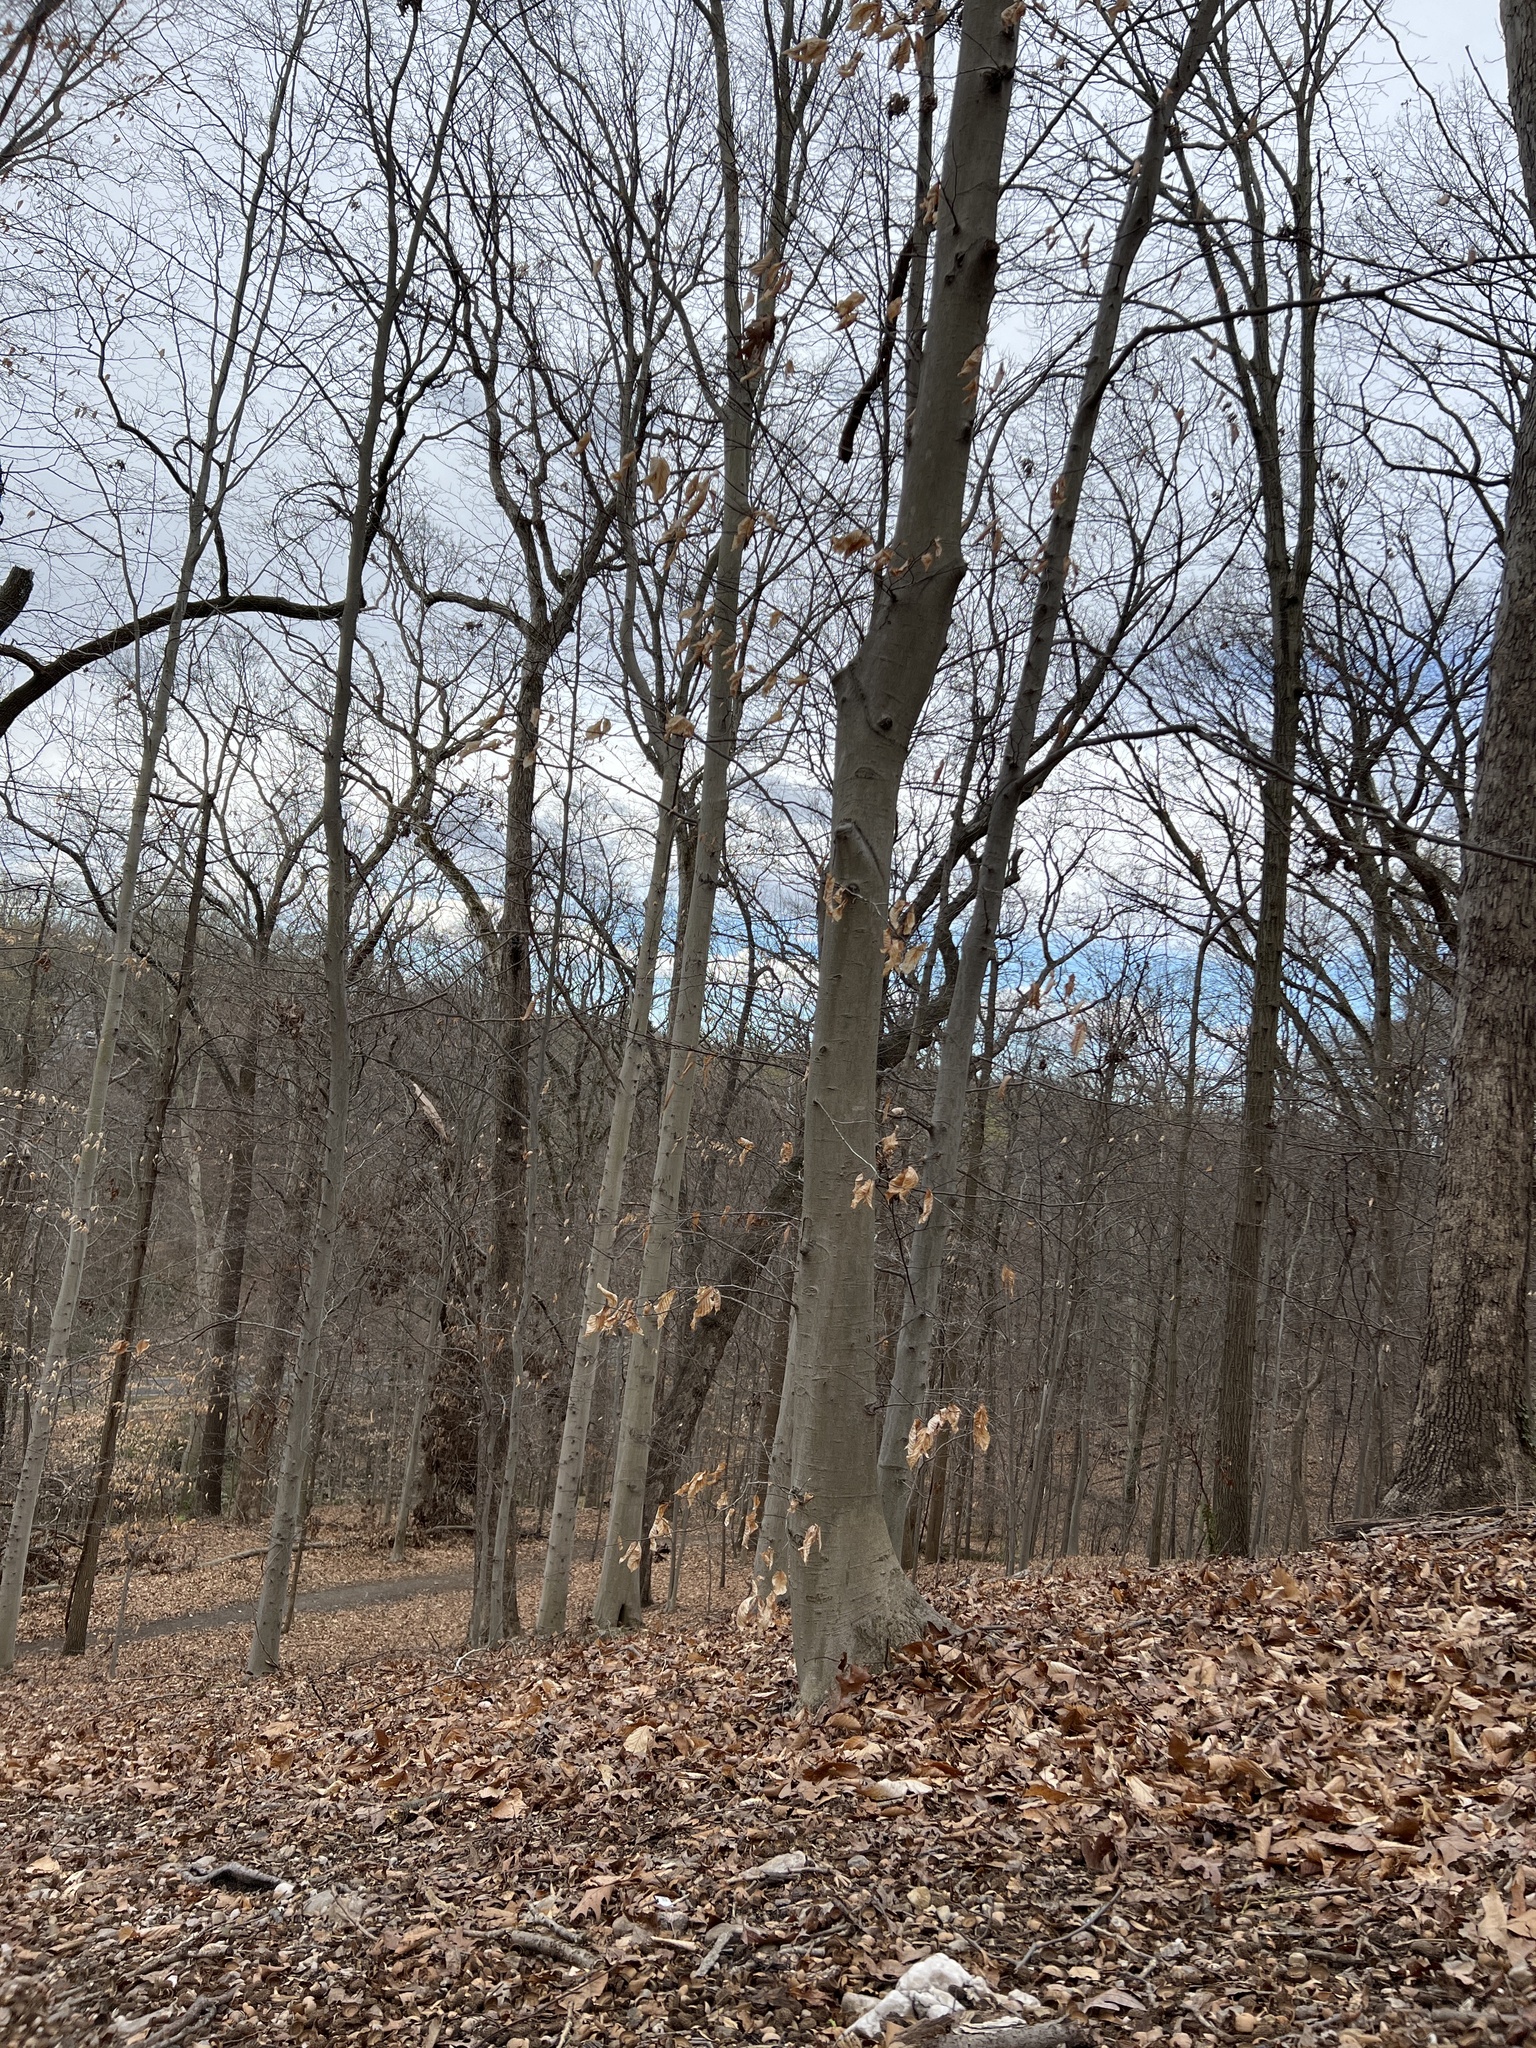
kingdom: Plantae
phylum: Tracheophyta
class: Magnoliopsida
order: Fagales
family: Fagaceae
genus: Fagus
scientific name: Fagus grandifolia
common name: American beech
